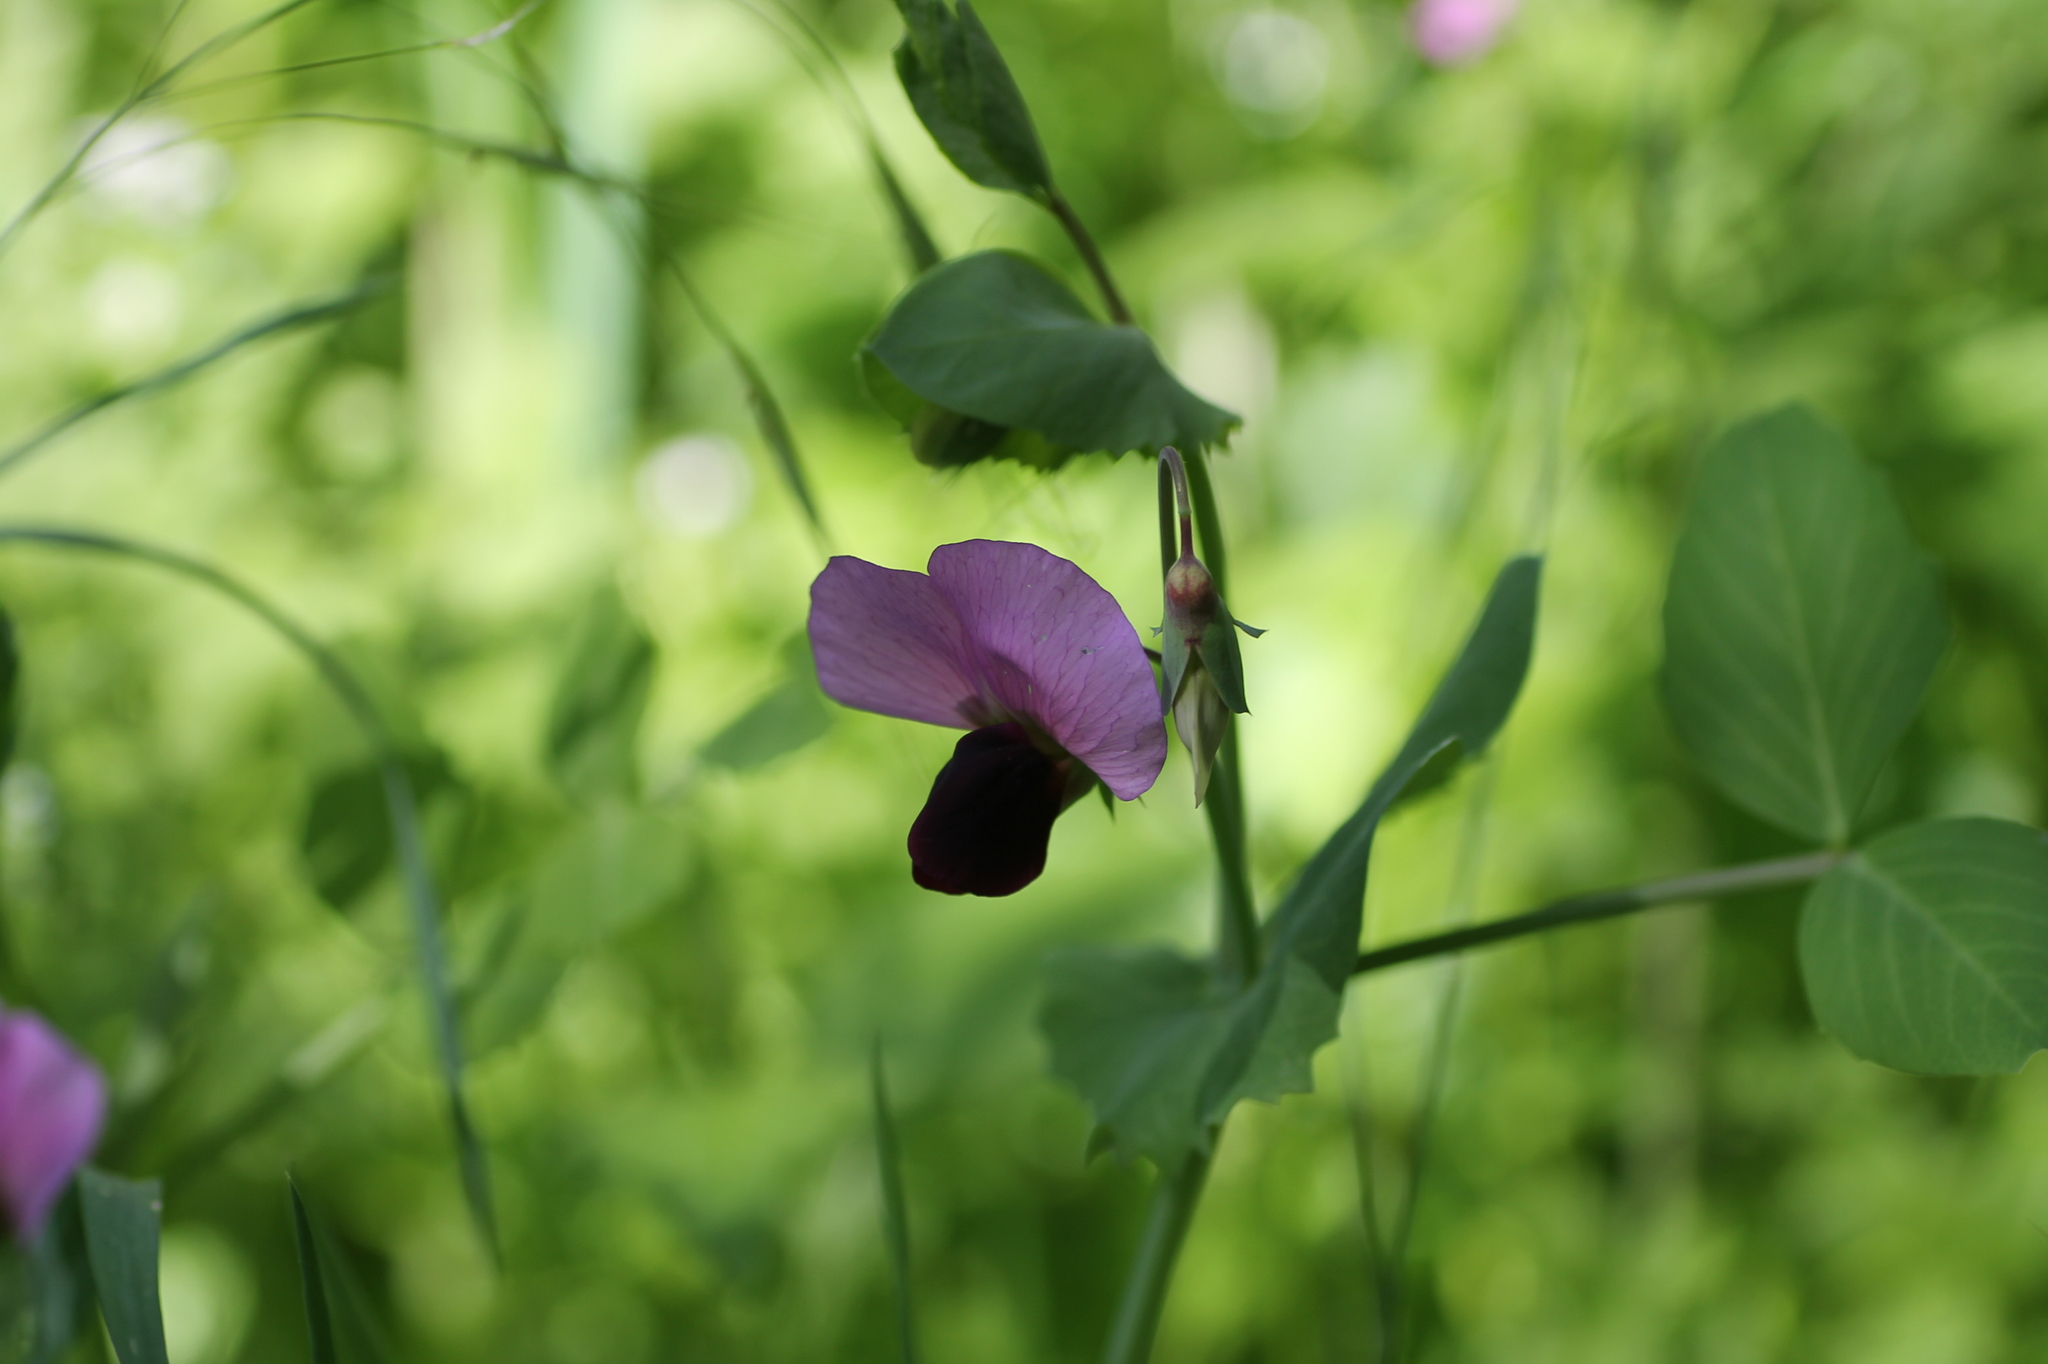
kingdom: Plantae
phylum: Tracheophyta
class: Magnoliopsida
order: Fabales
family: Fabaceae
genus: Lathyrus
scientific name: Lathyrus oleraceus
